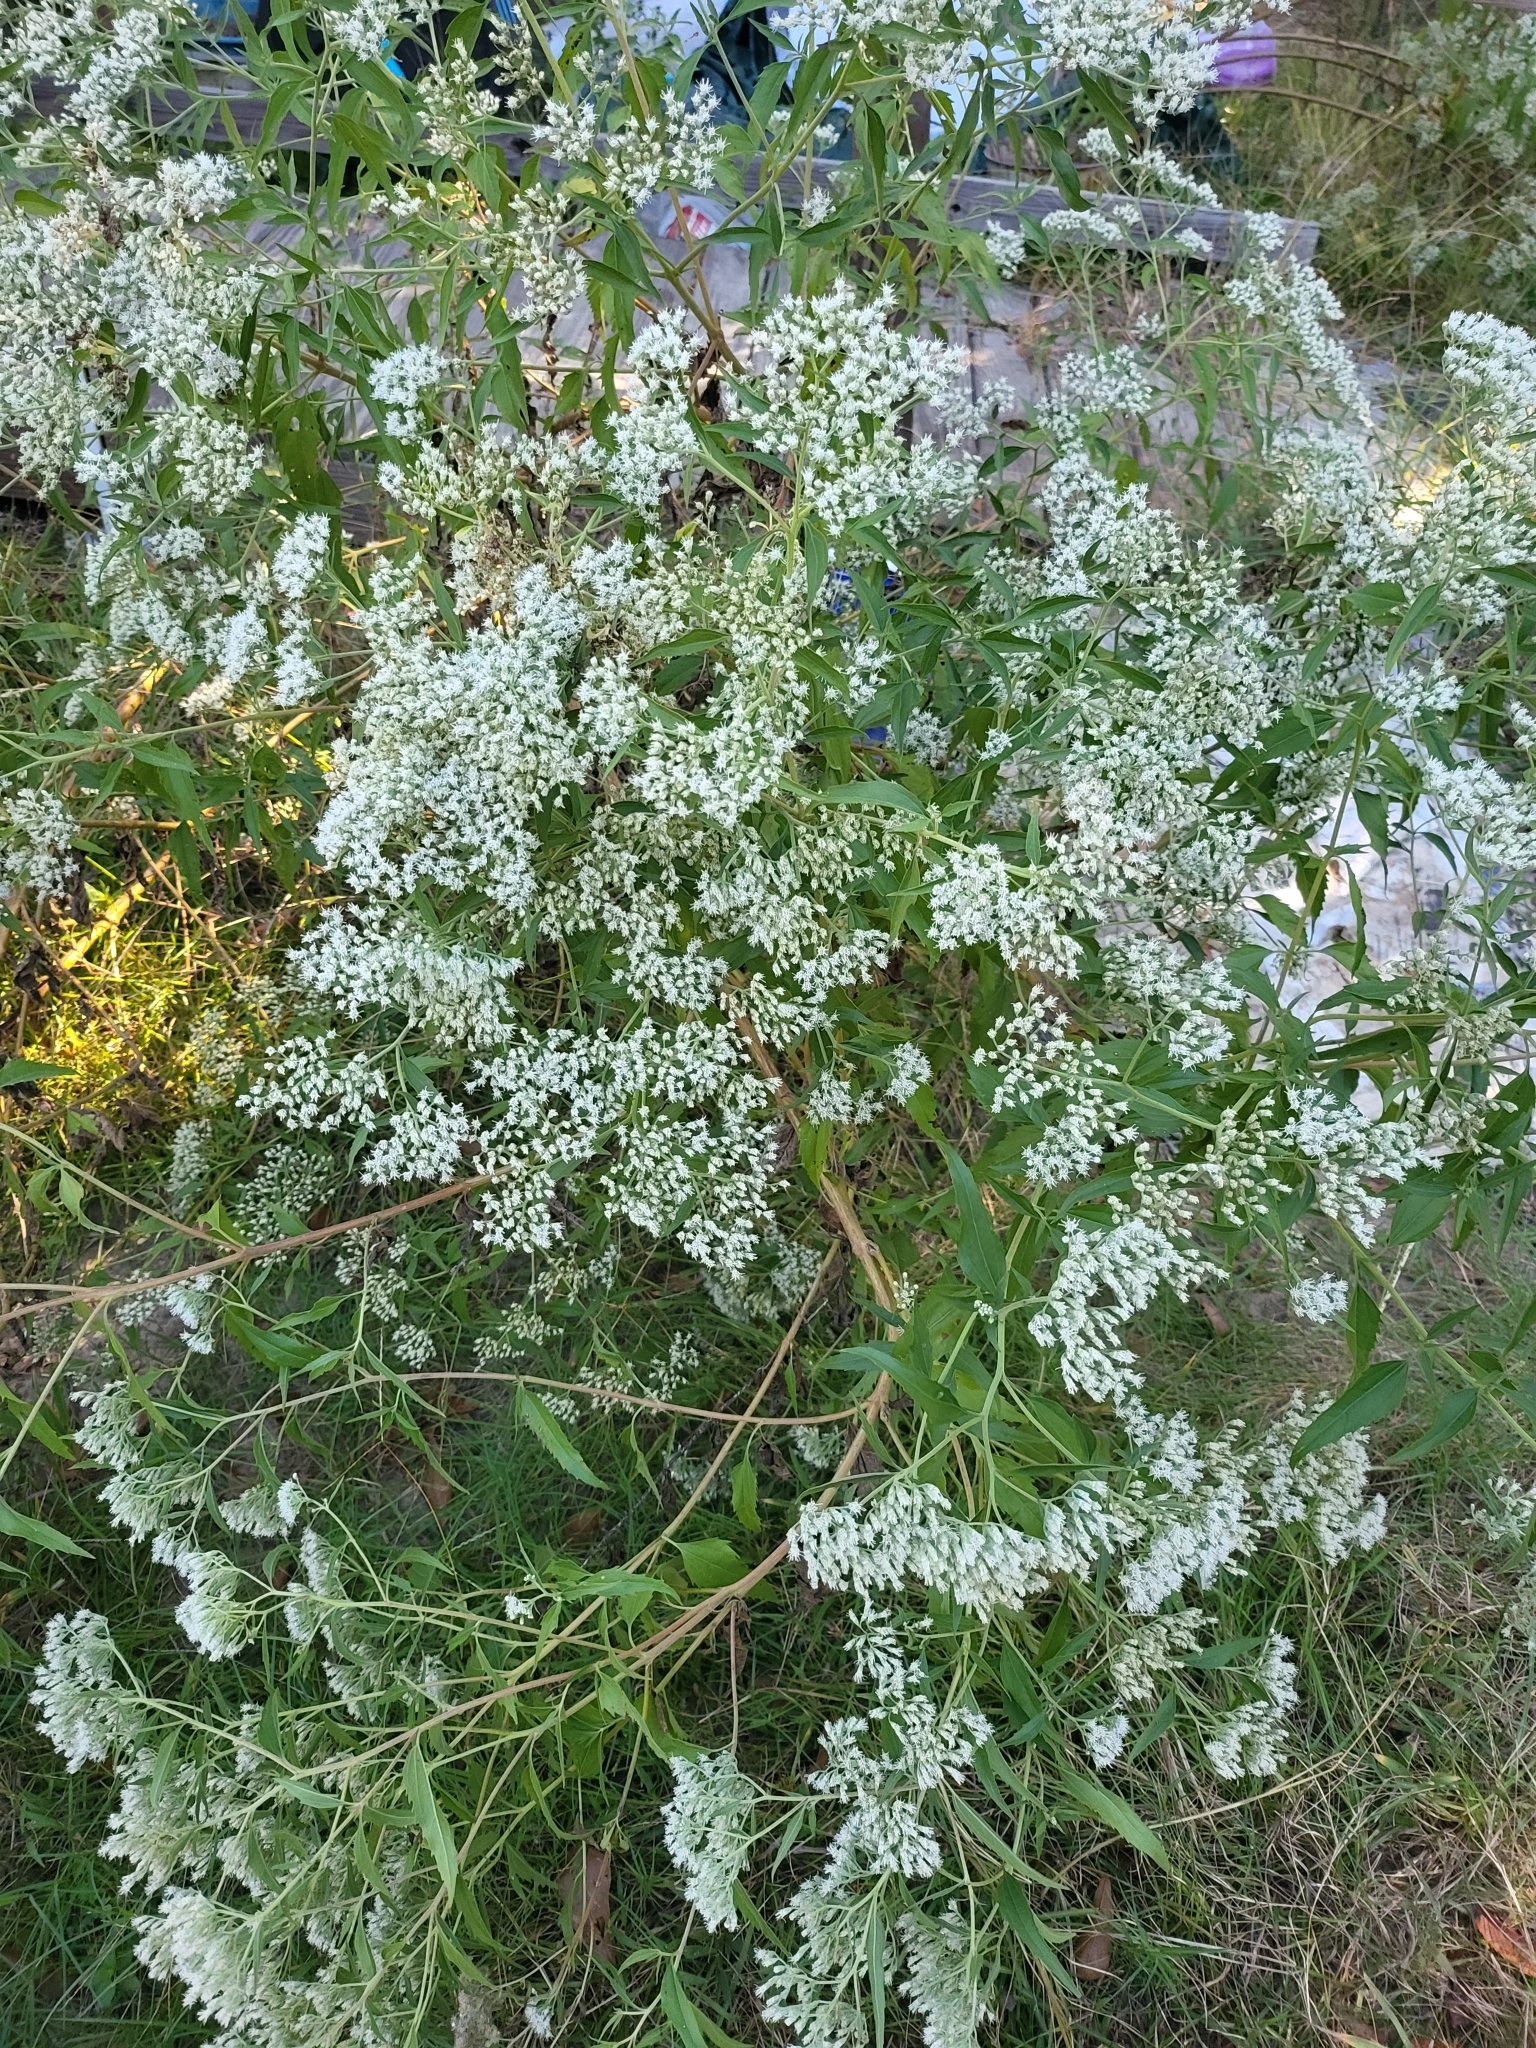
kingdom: Plantae
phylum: Tracheophyta
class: Magnoliopsida
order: Asterales
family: Asteraceae
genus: Eupatorium
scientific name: Eupatorium serotinum
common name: Late boneset
